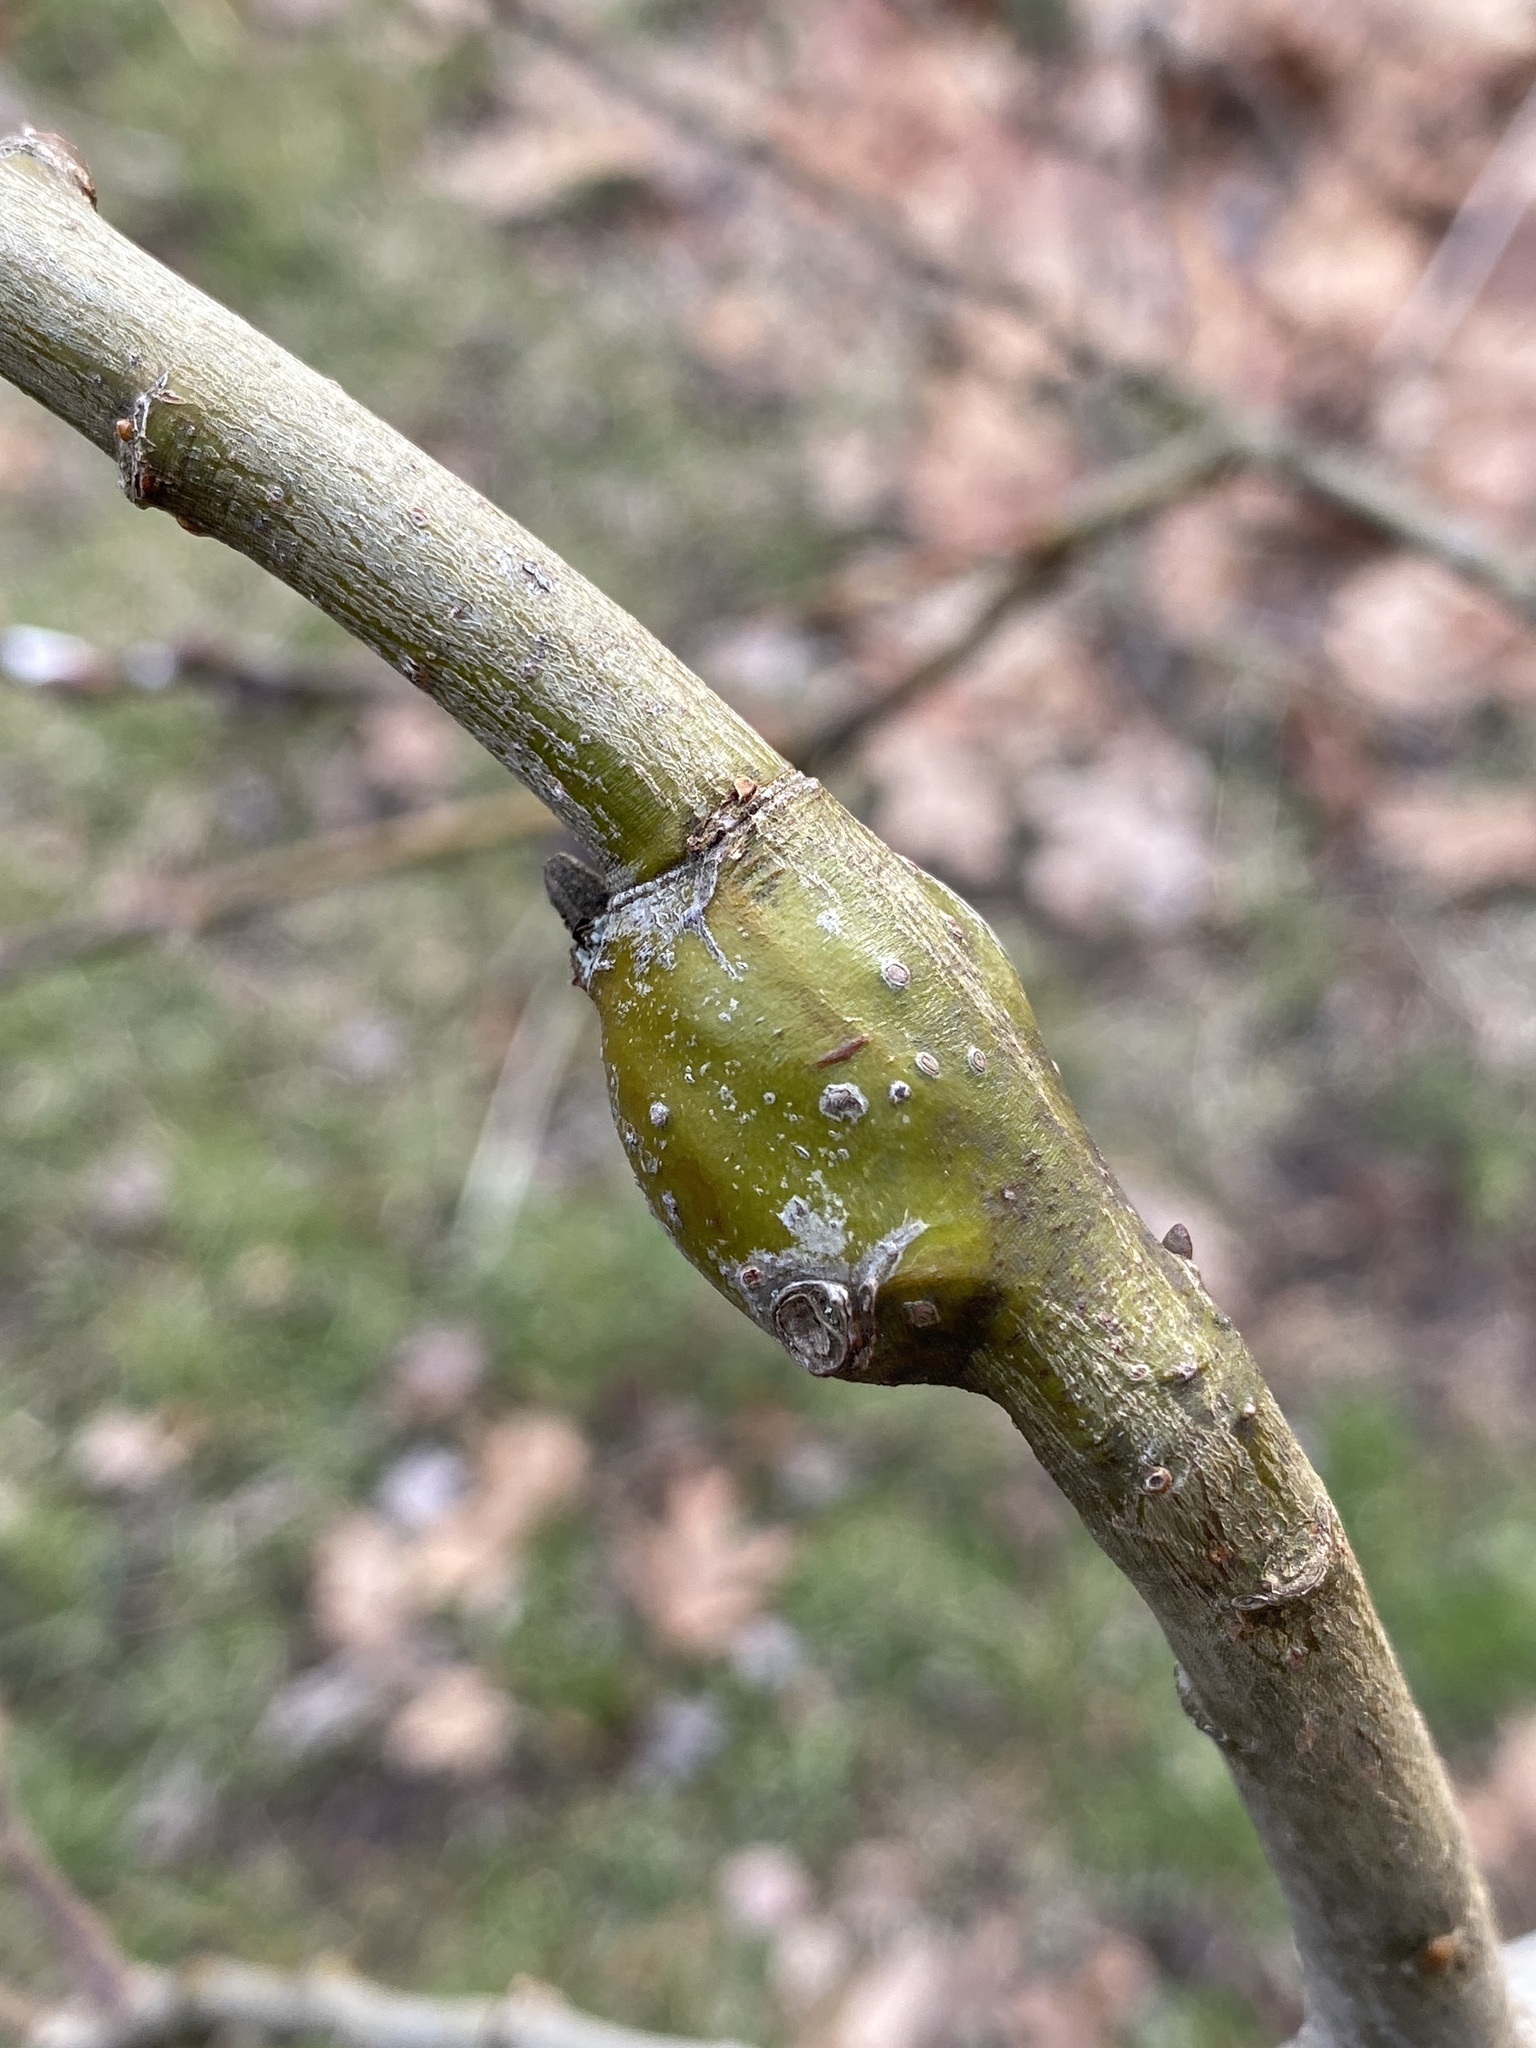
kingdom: Animalia
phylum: Arthropoda
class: Insecta
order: Diptera
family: Cecidomyiidae
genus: Thecodiplosis
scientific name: Thecodiplosis pinirigidae
